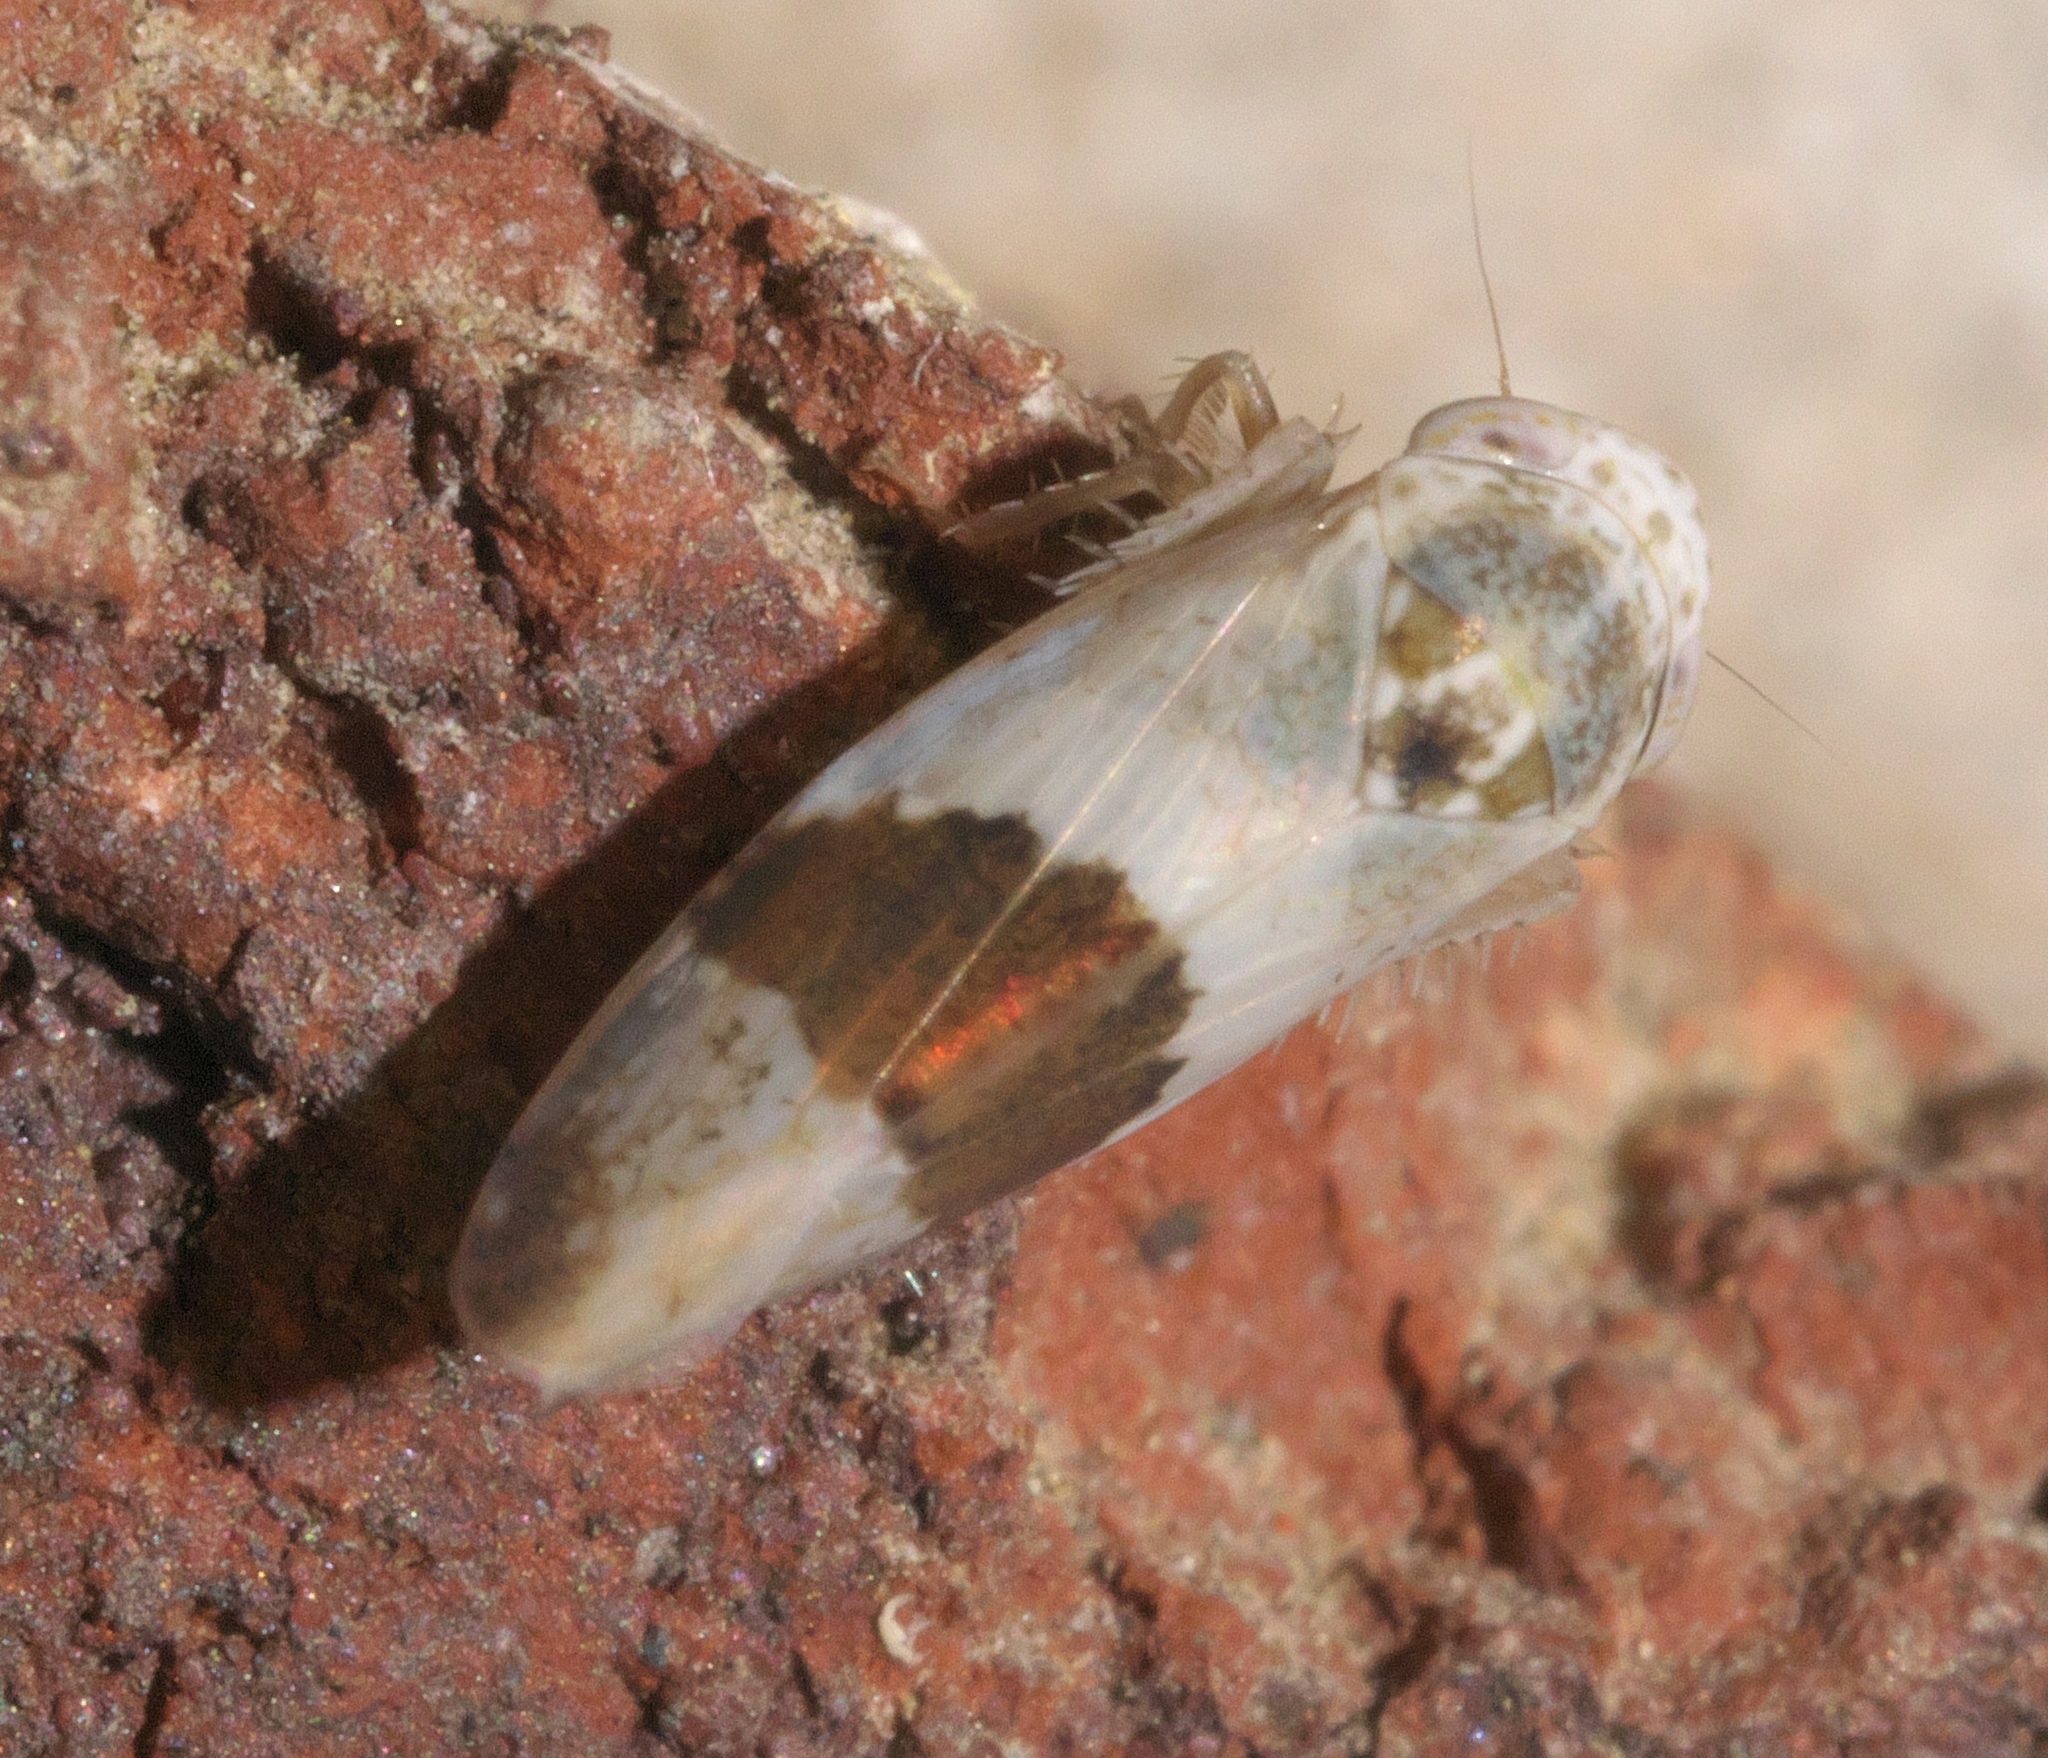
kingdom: Animalia
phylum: Arthropoda
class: Insecta
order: Hemiptera
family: Cicadellidae
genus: Norvellina
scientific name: Norvellina seminuda
